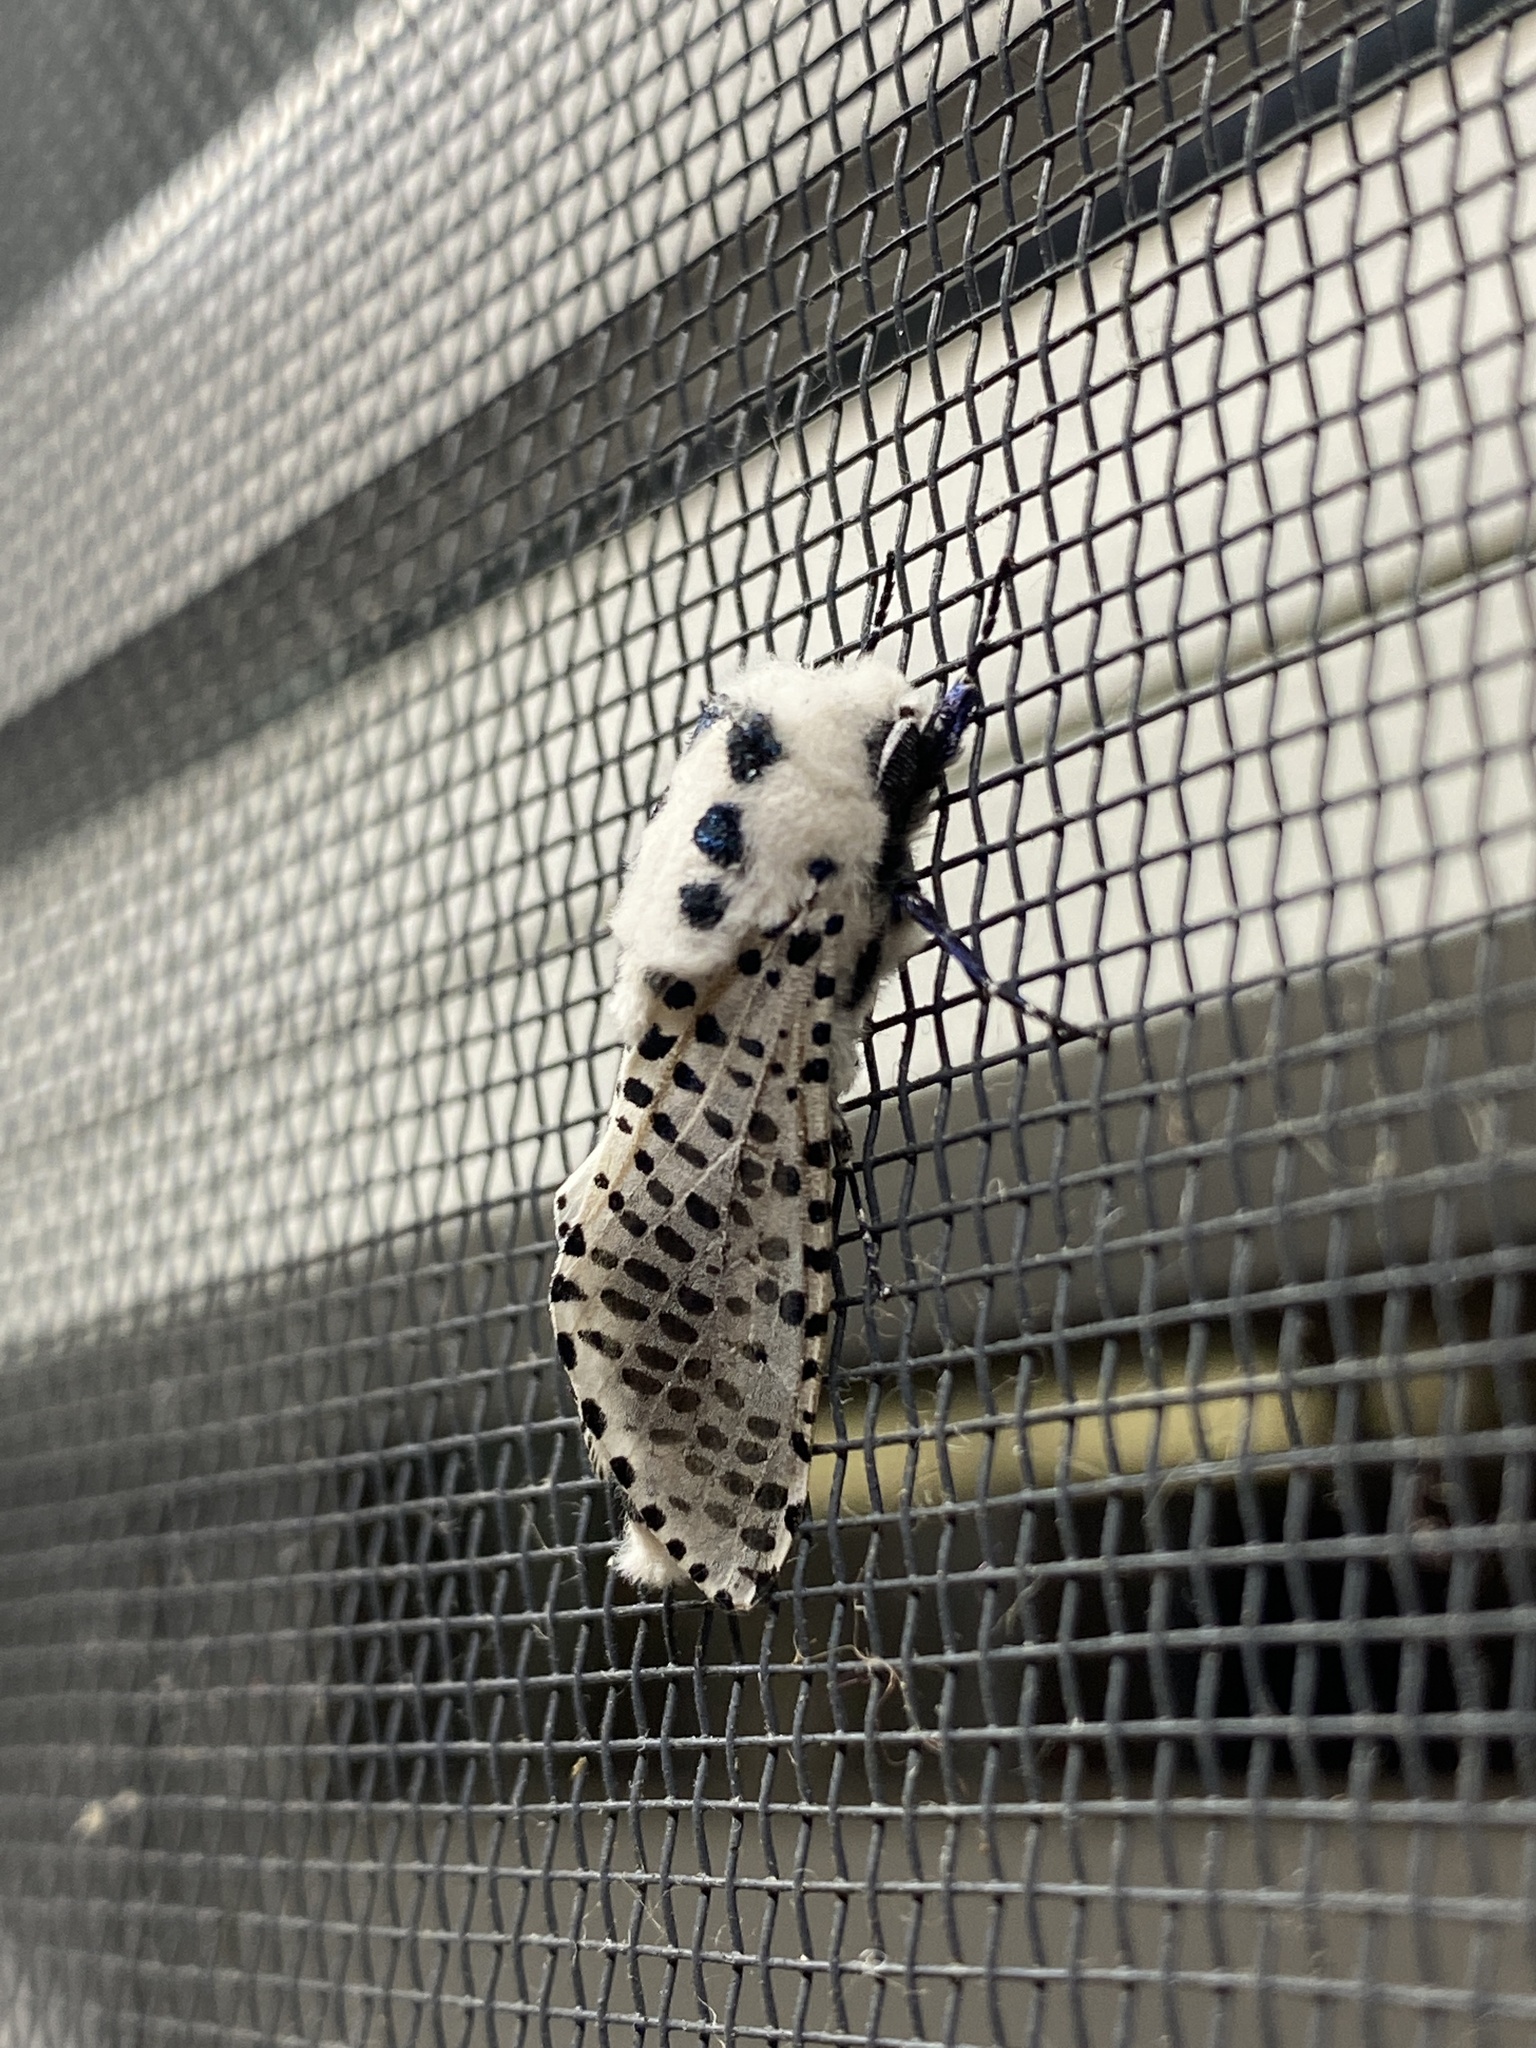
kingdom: Animalia
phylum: Arthropoda
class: Insecta
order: Lepidoptera
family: Cossidae
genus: Zeuzera
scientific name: Zeuzera pyrina
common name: Leopard moth
